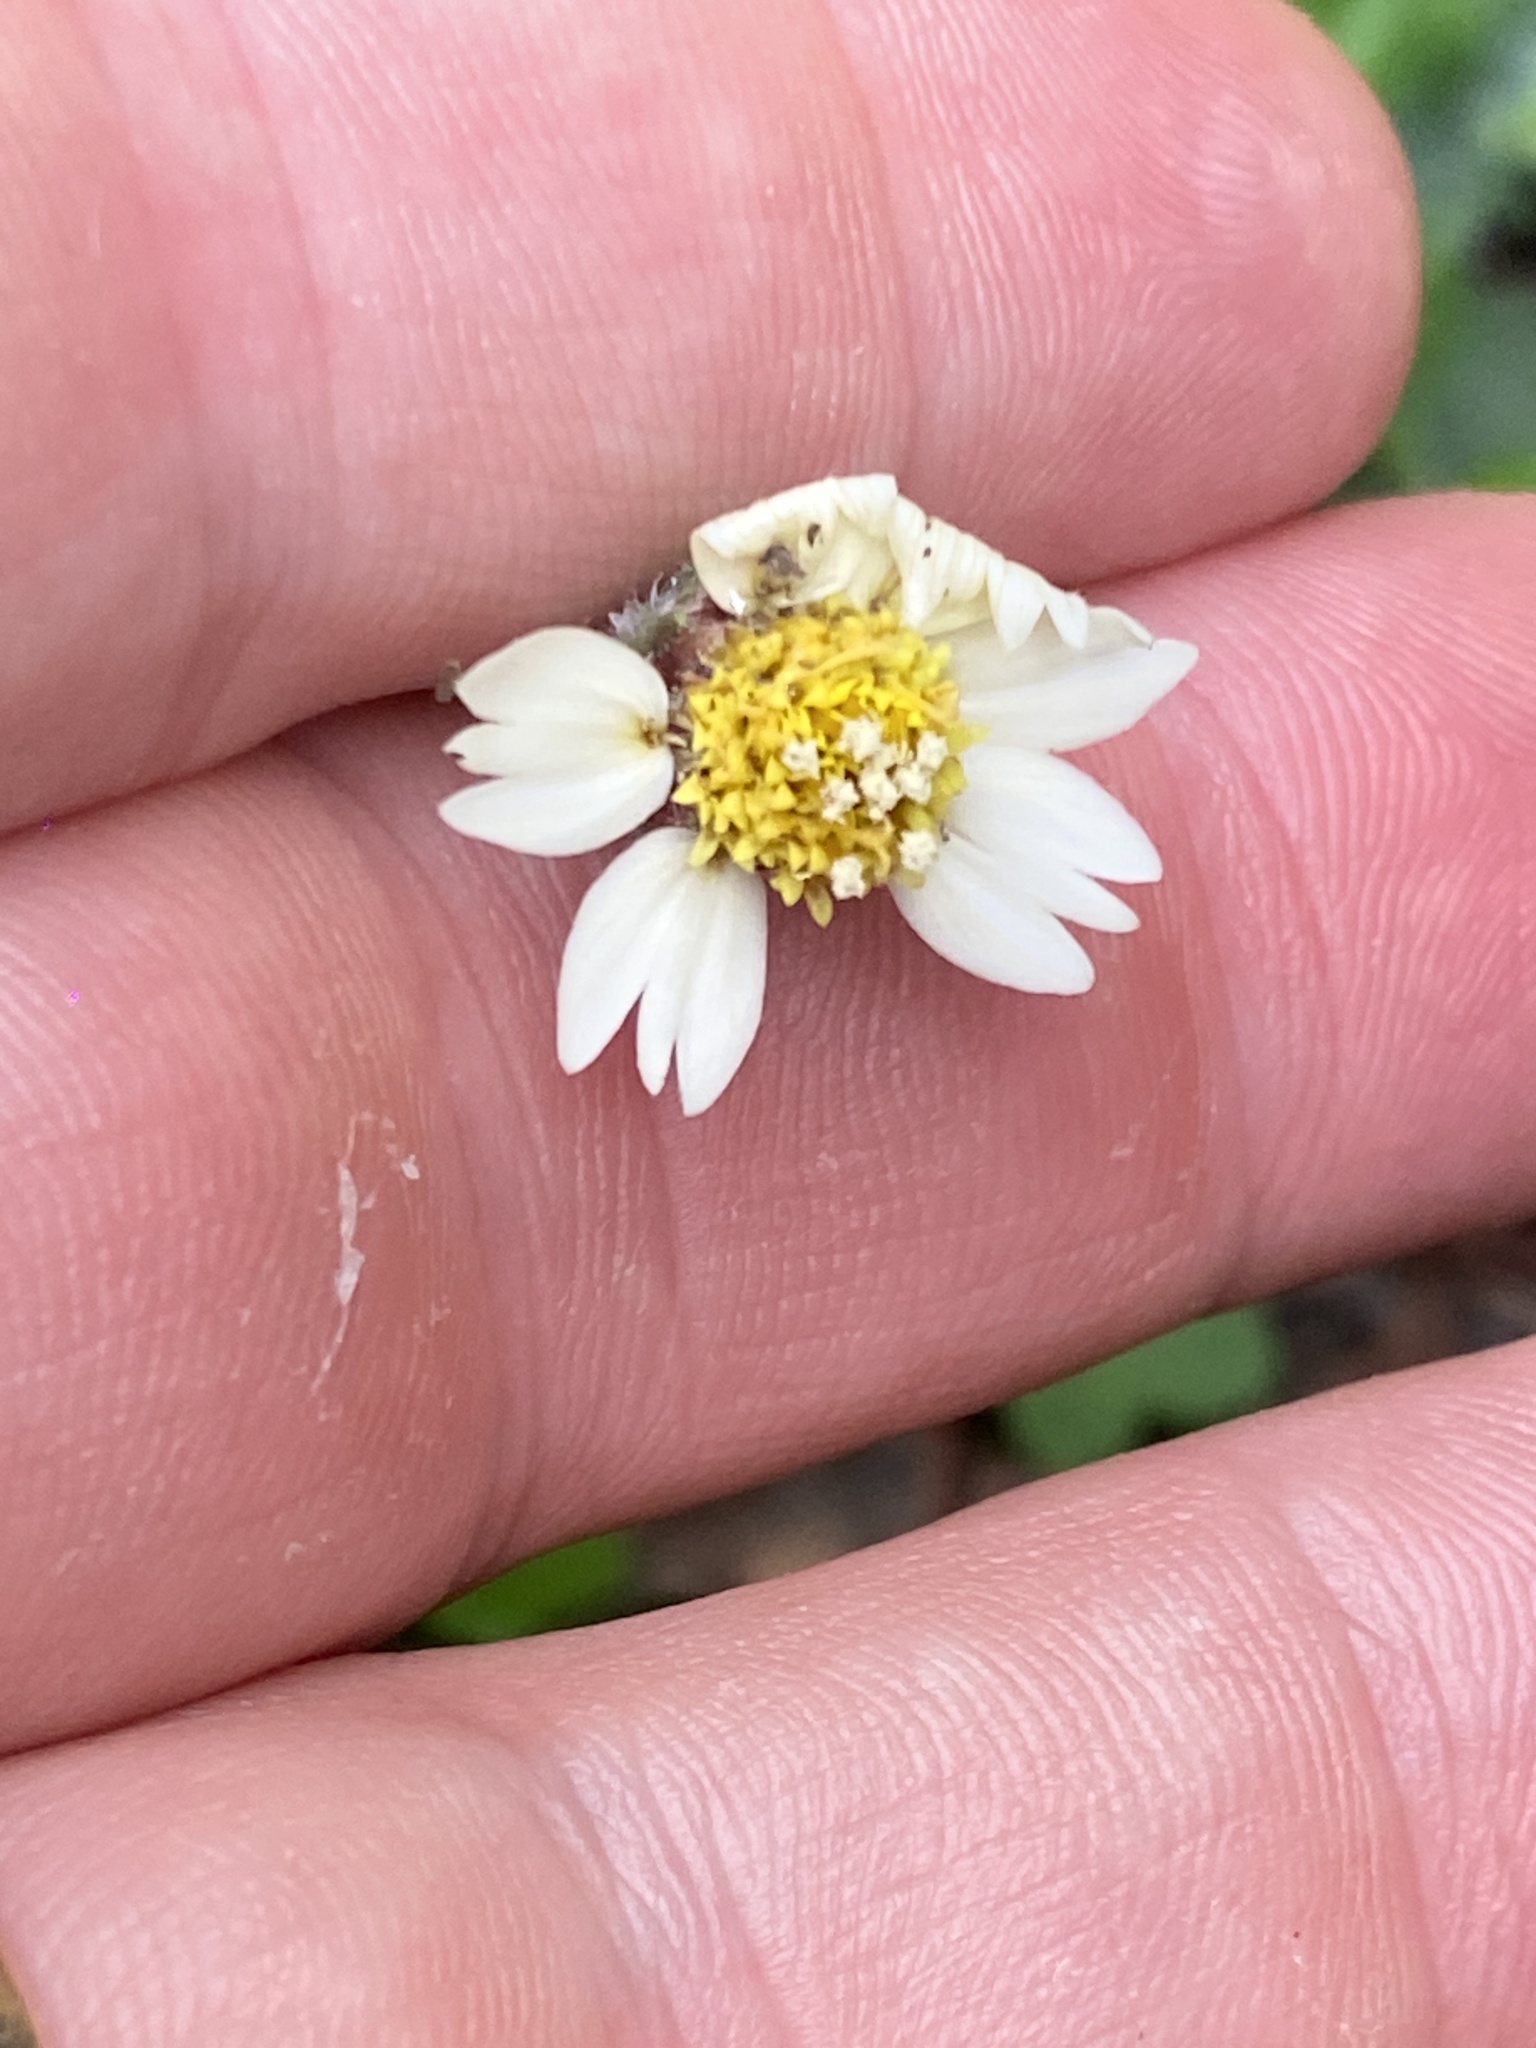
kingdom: Plantae
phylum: Tracheophyta
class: Magnoliopsida
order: Asterales
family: Asteraceae
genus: Tridax
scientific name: Tridax procumbens
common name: Coatbuttons
